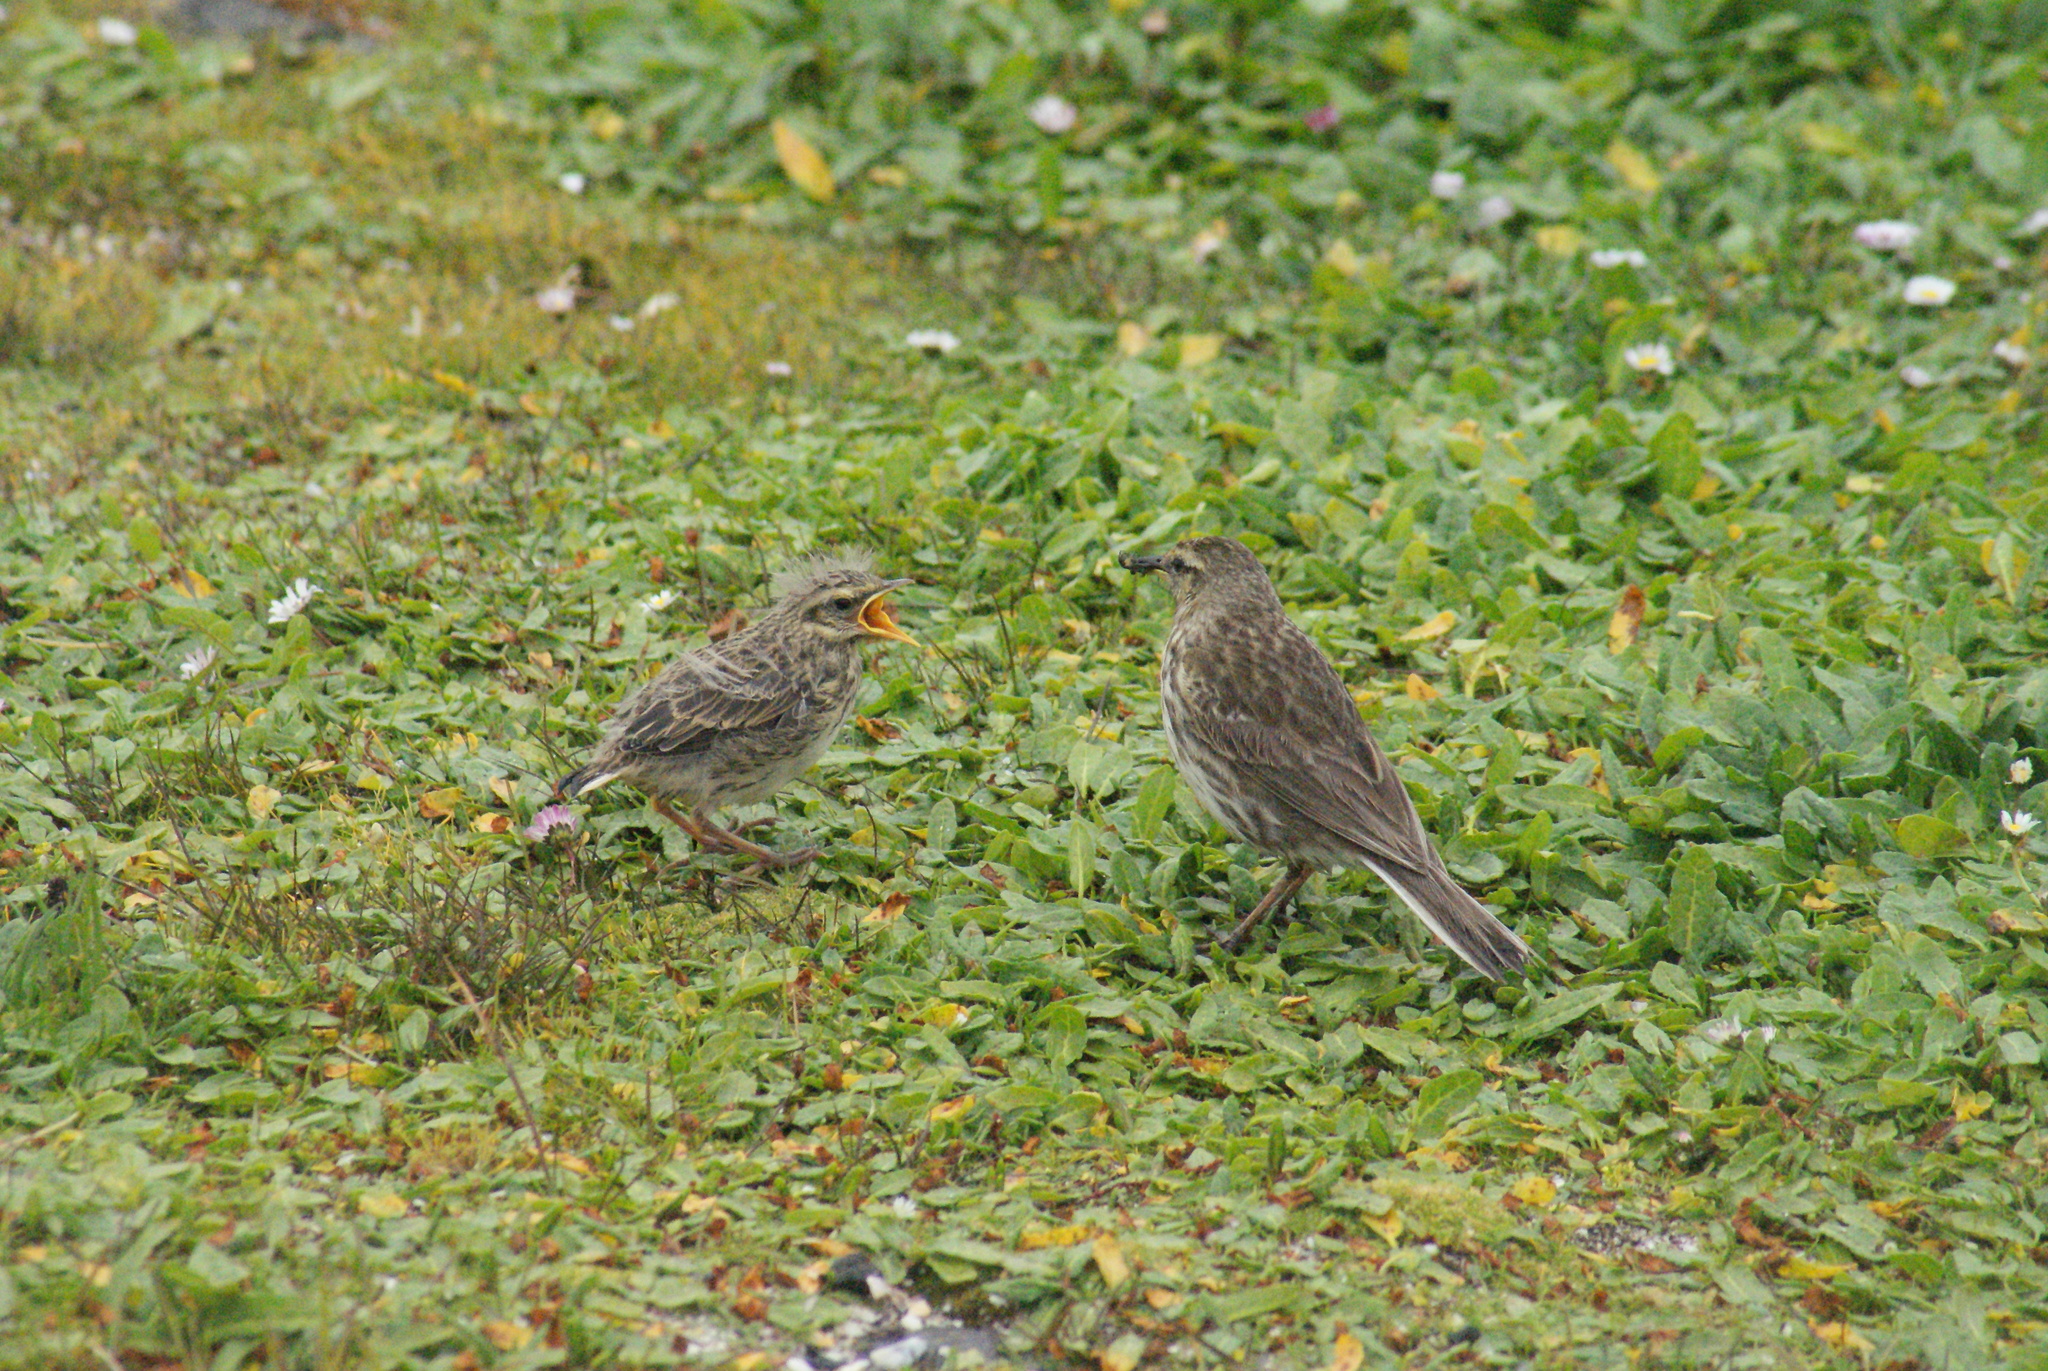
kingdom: Animalia
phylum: Chordata
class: Aves
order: Passeriformes
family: Motacillidae
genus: Anthus
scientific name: Anthus novaeseelandiae
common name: New zealand pipit
